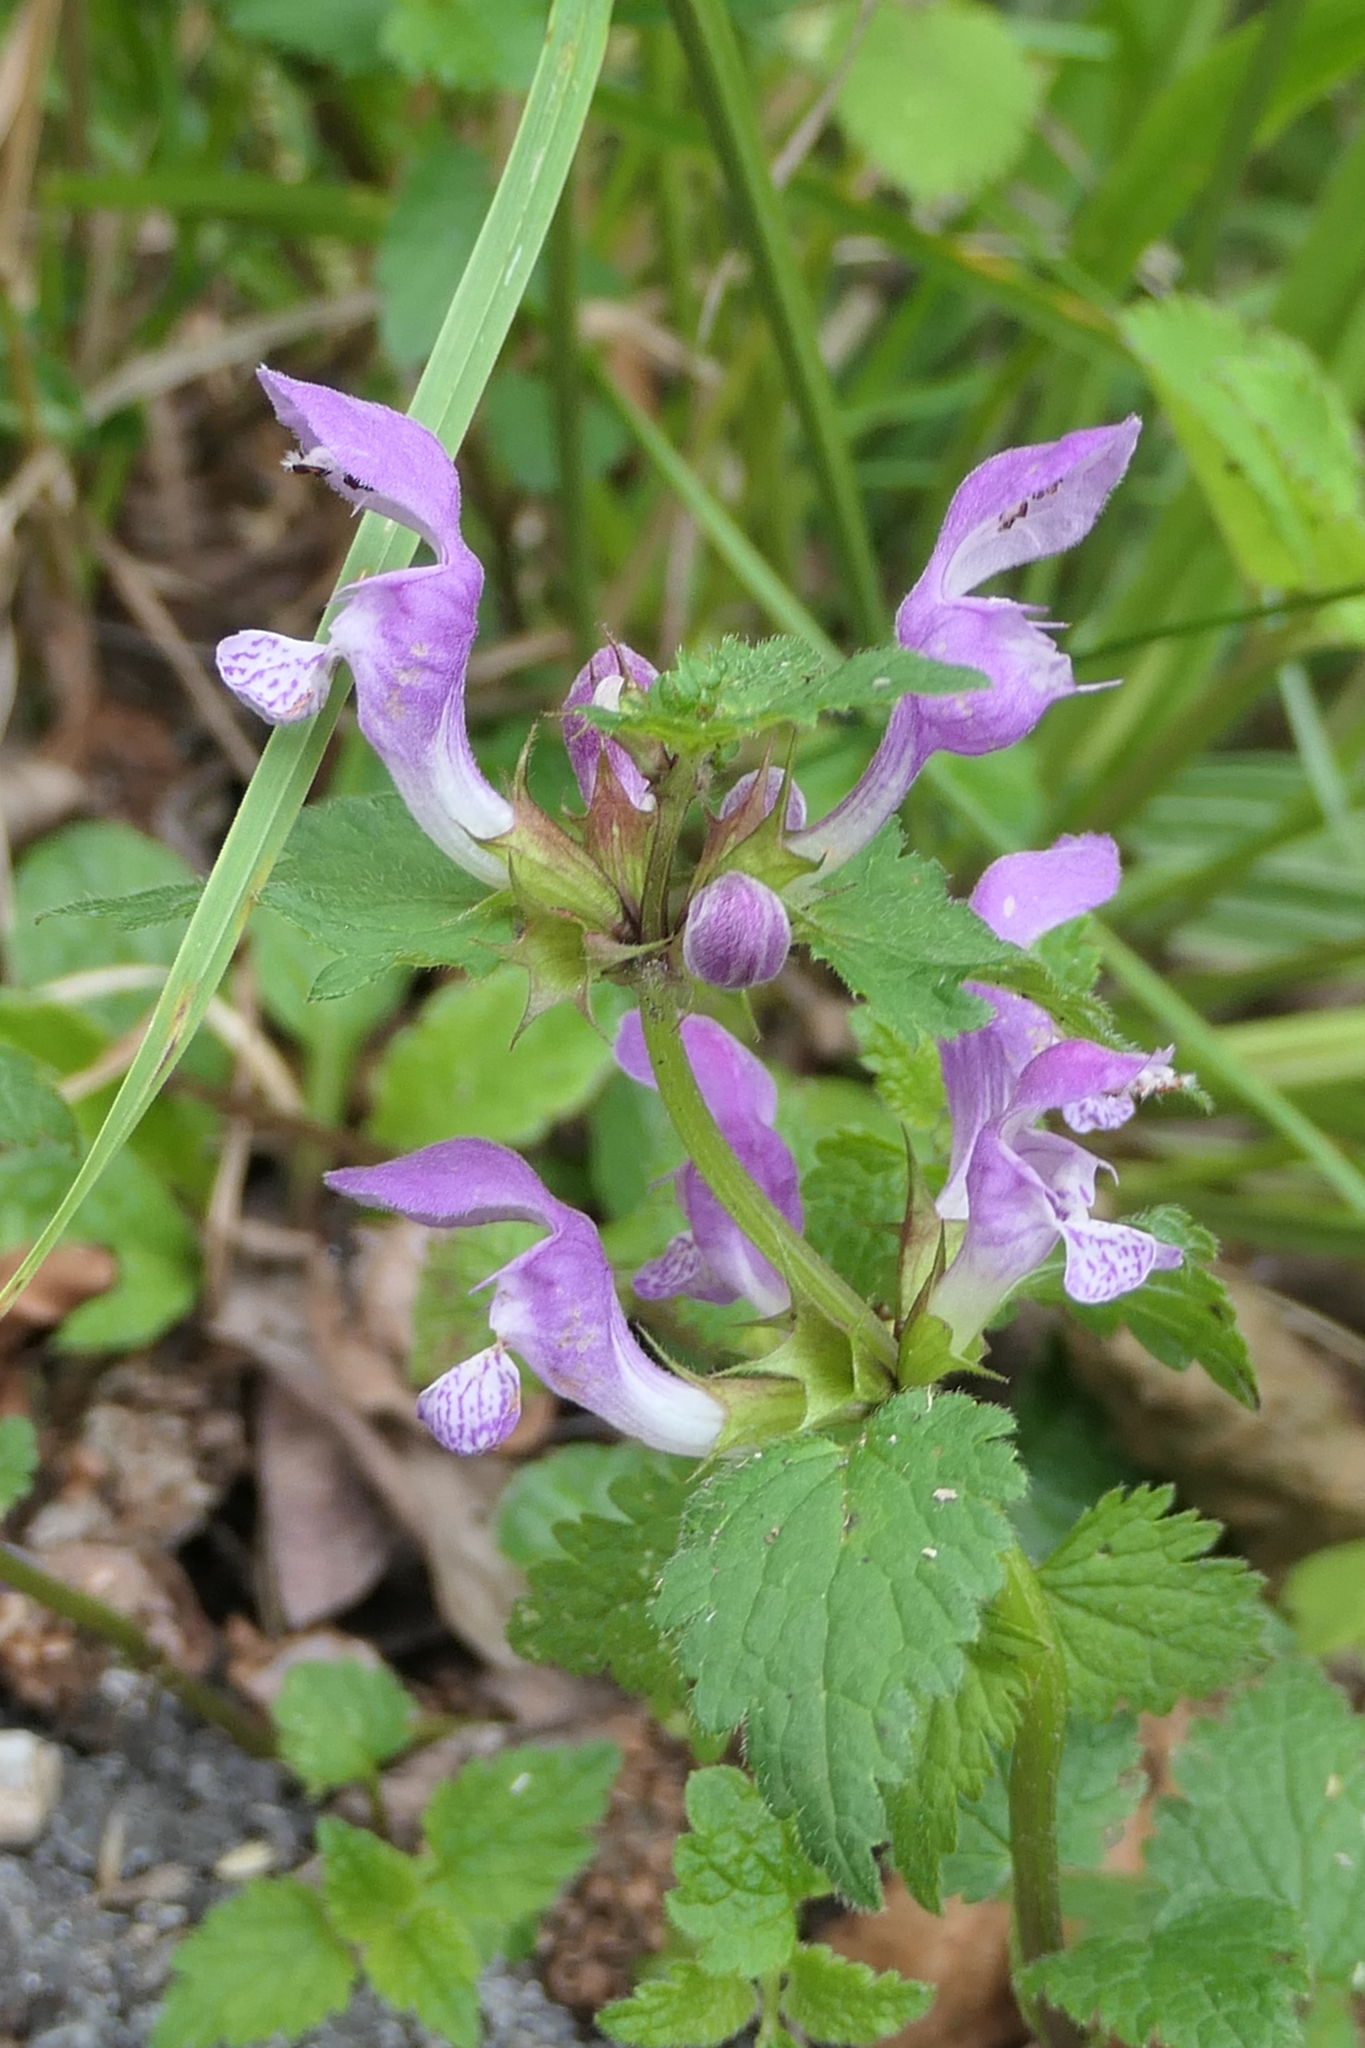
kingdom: Plantae
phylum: Tracheophyta
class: Magnoliopsida
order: Lamiales
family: Lamiaceae
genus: Lamium
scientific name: Lamium maculatum
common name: Spotted dead-nettle
